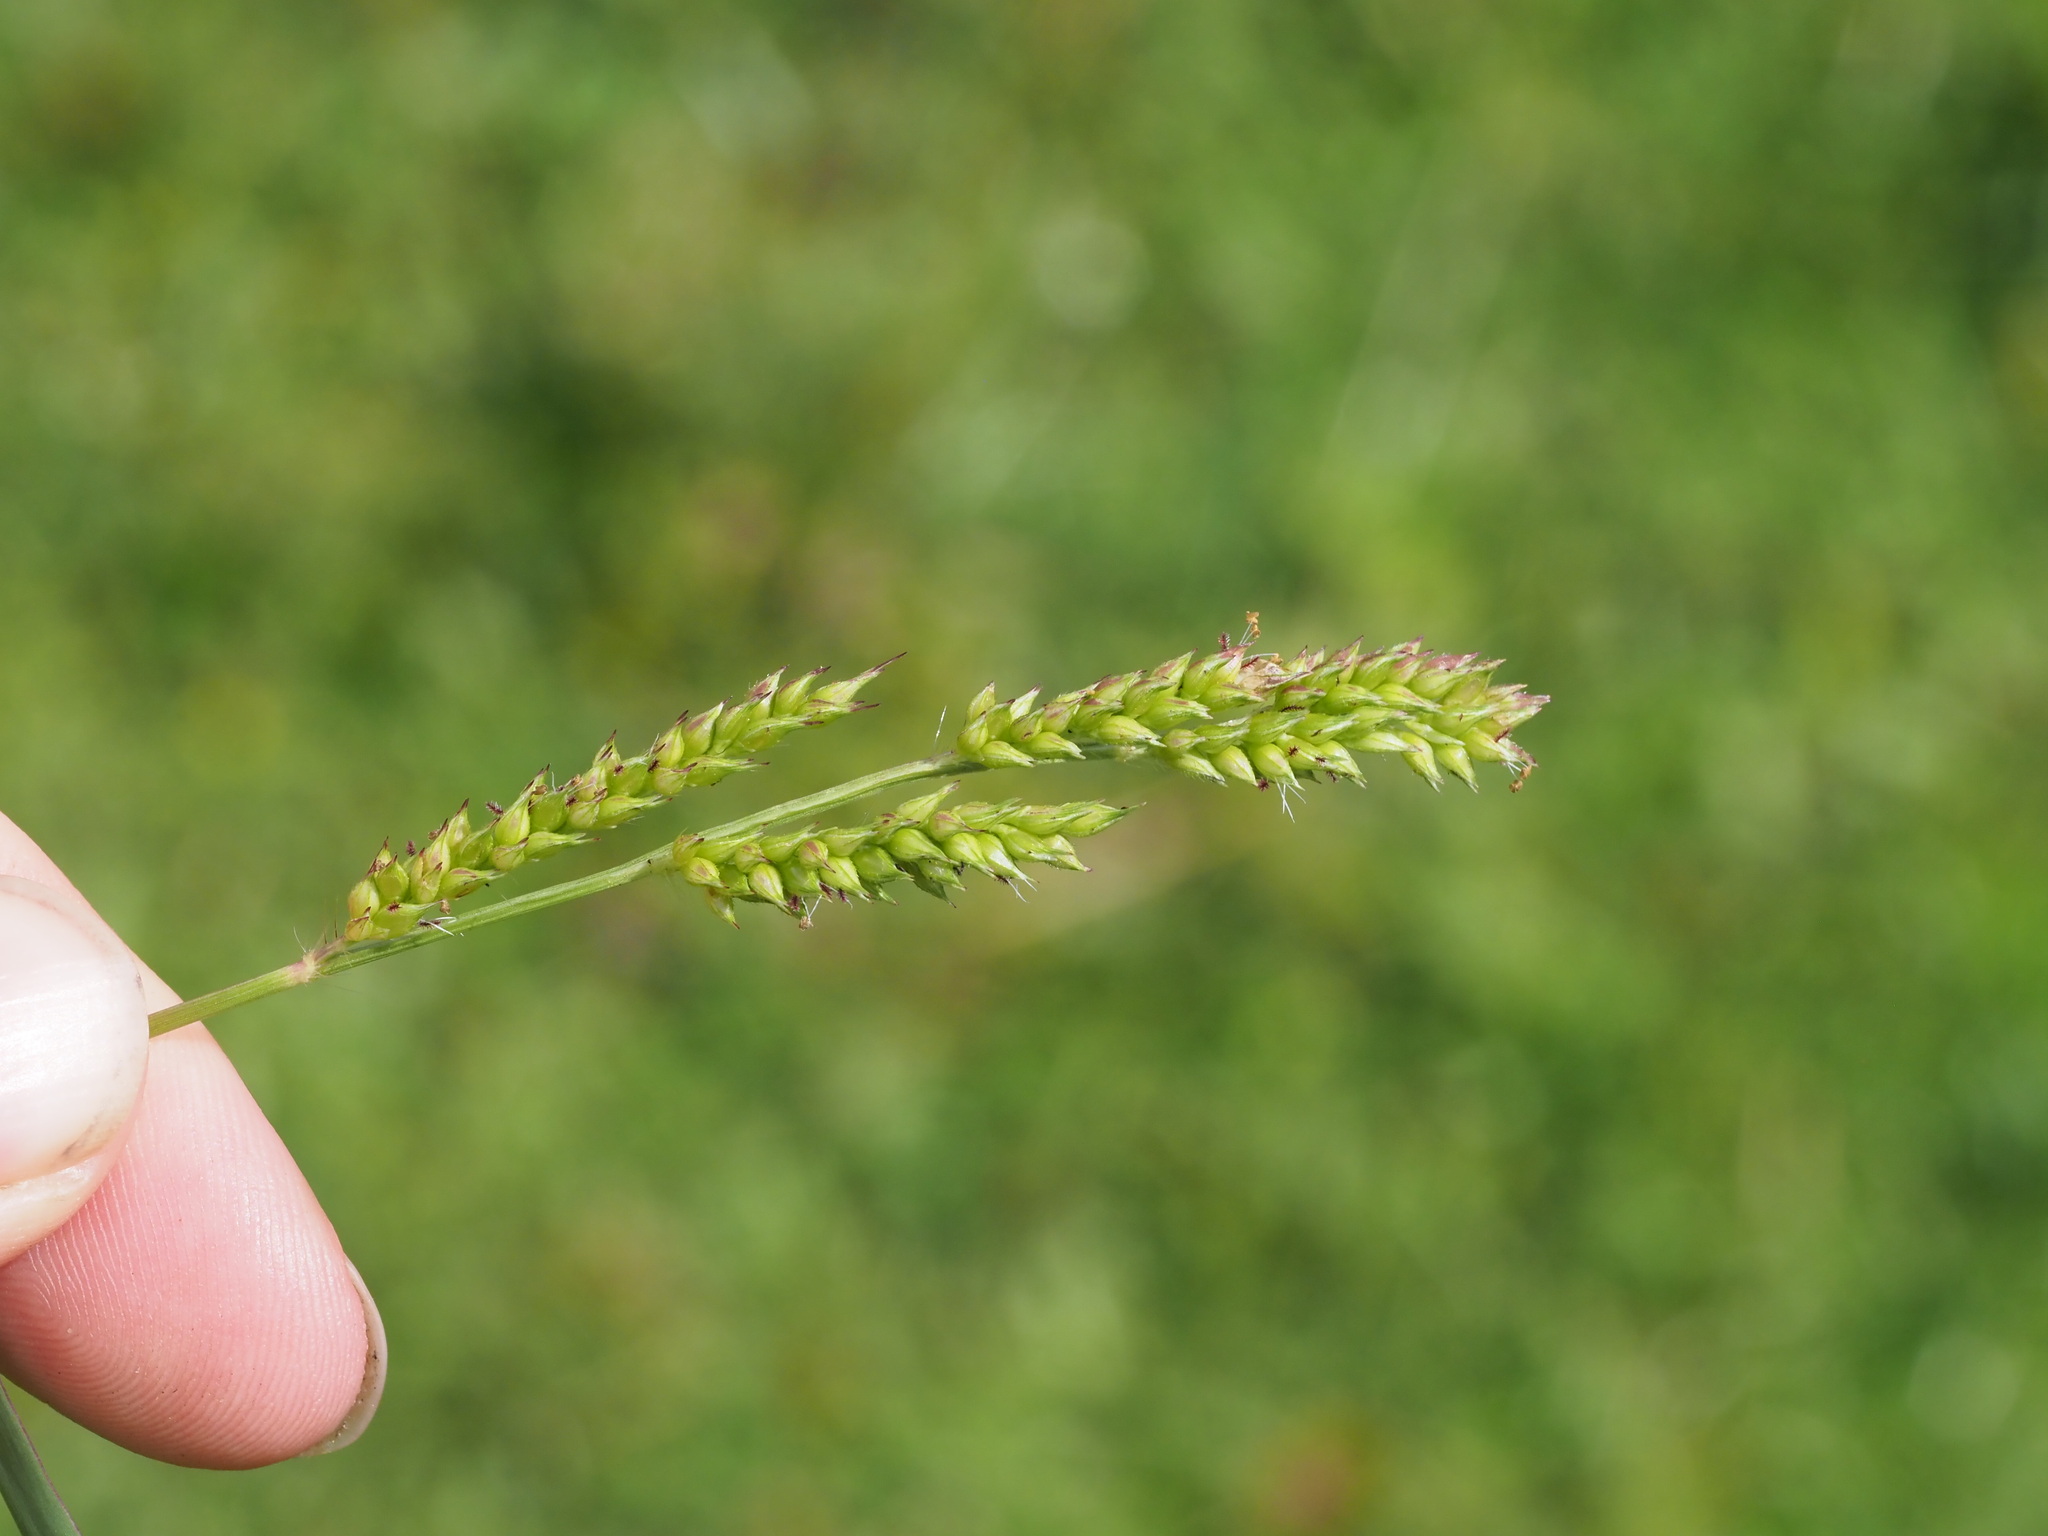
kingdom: Plantae
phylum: Tracheophyta
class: Liliopsida
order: Poales
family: Poaceae
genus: Echinochloa
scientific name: Echinochloa colonum
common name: Jungle rice
